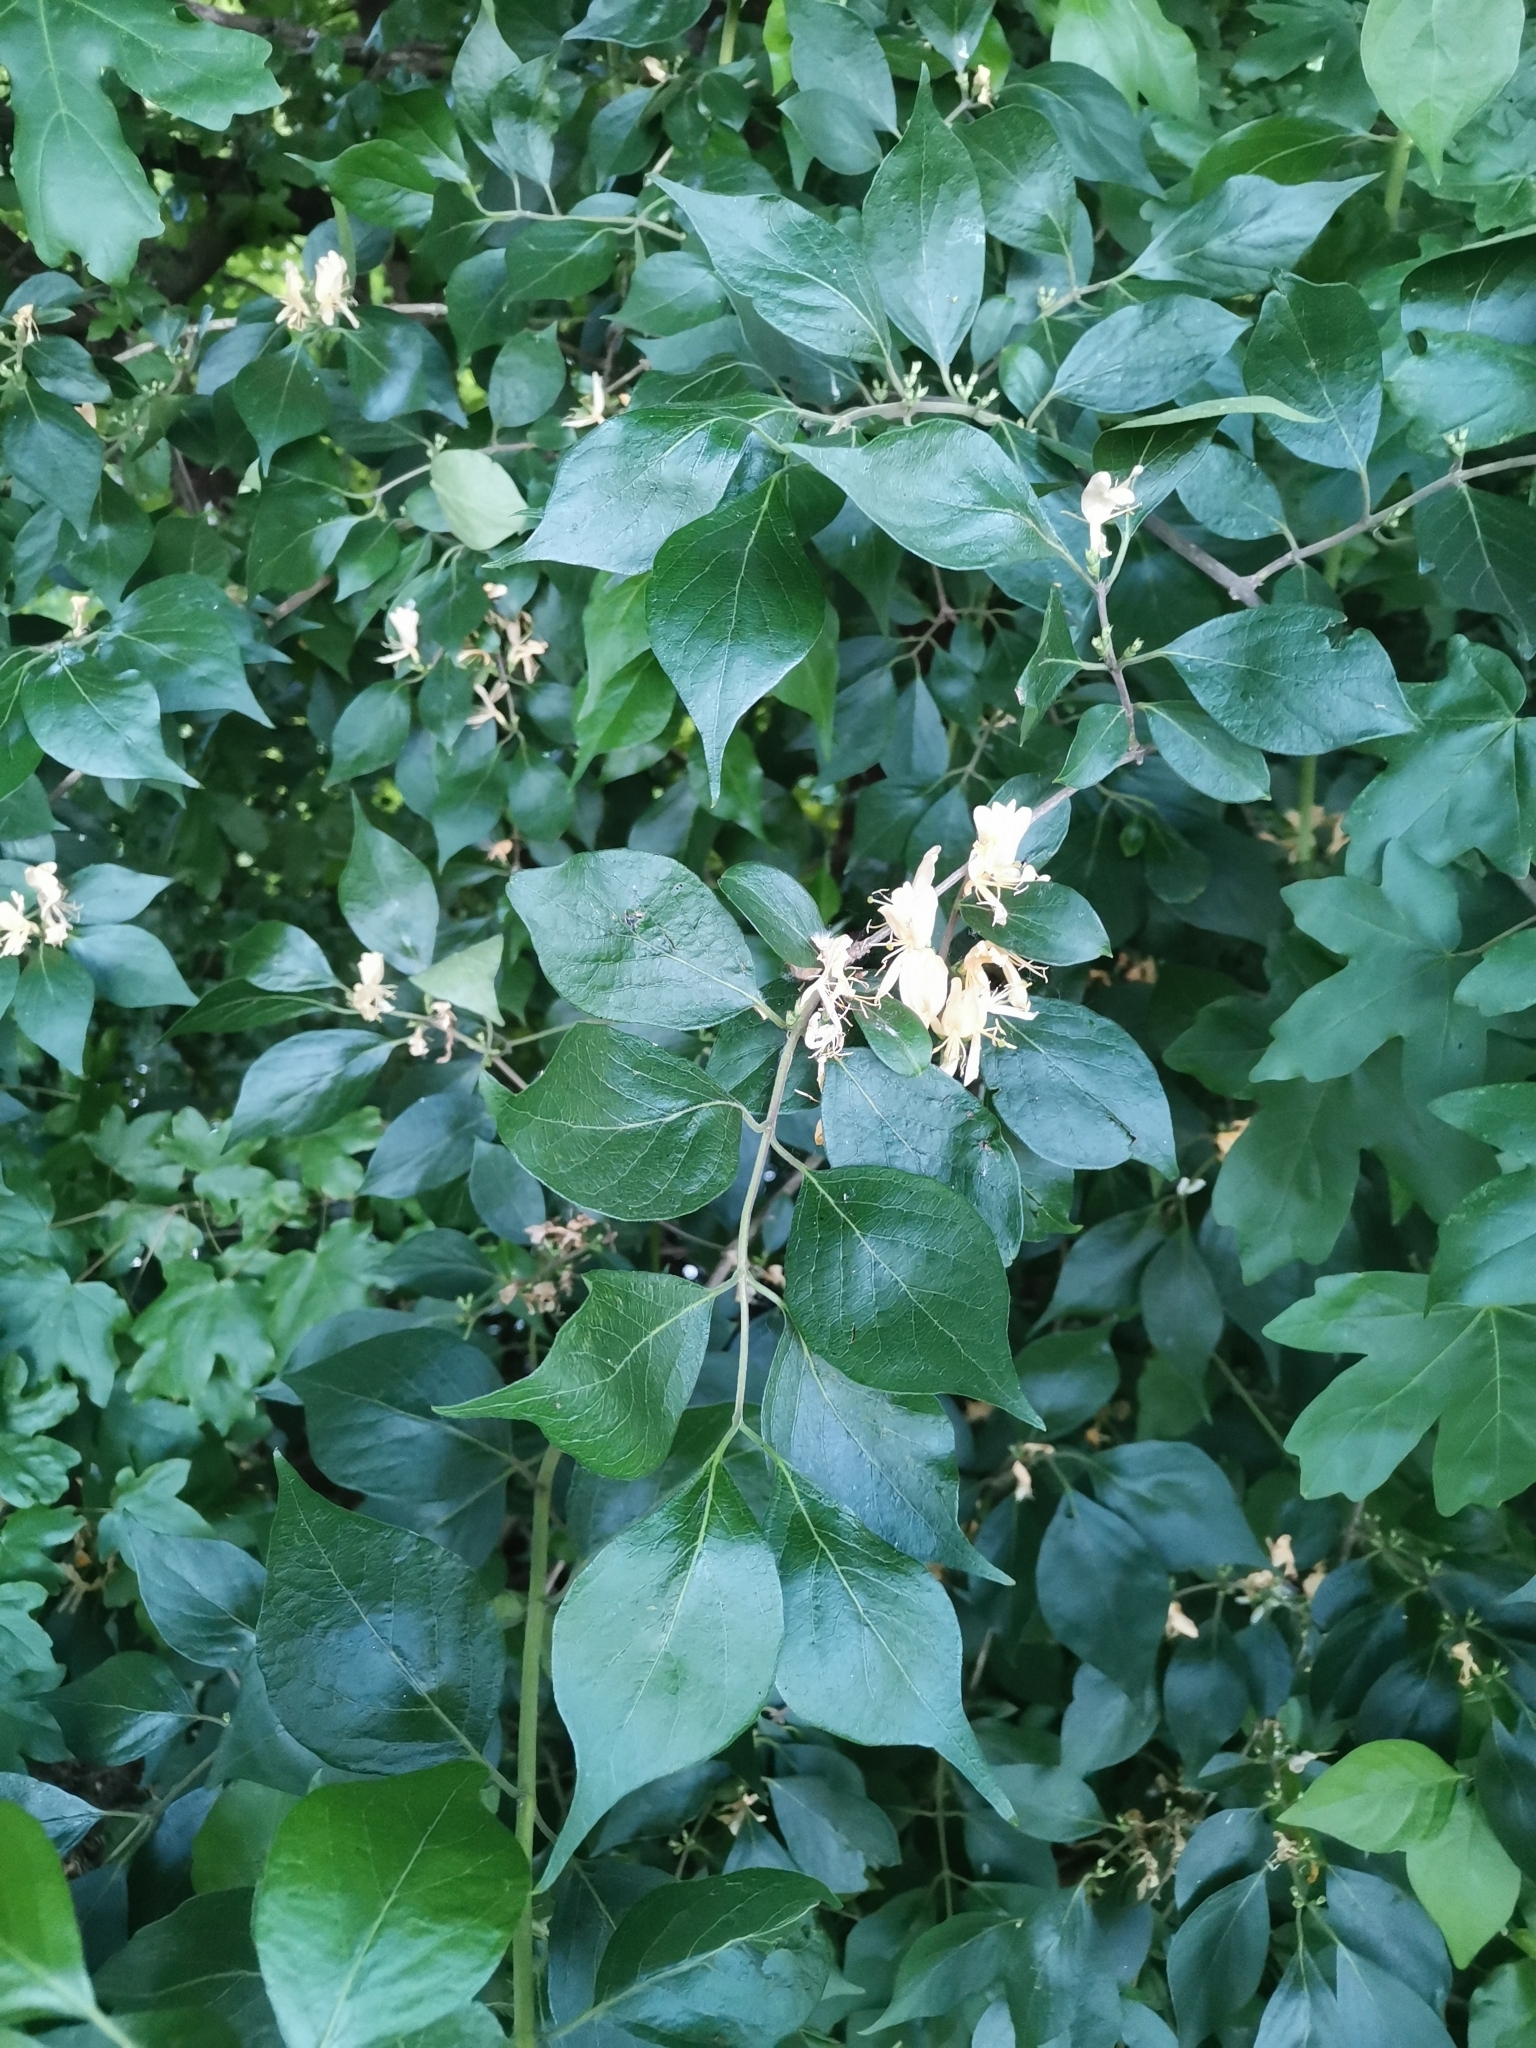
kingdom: Plantae
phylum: Tracheophyta
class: Magnoliopsida
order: Dipsacales
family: Caprifoliaceae
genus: Lonicera
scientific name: Lonicera maackii
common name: Amur honeysuckle
